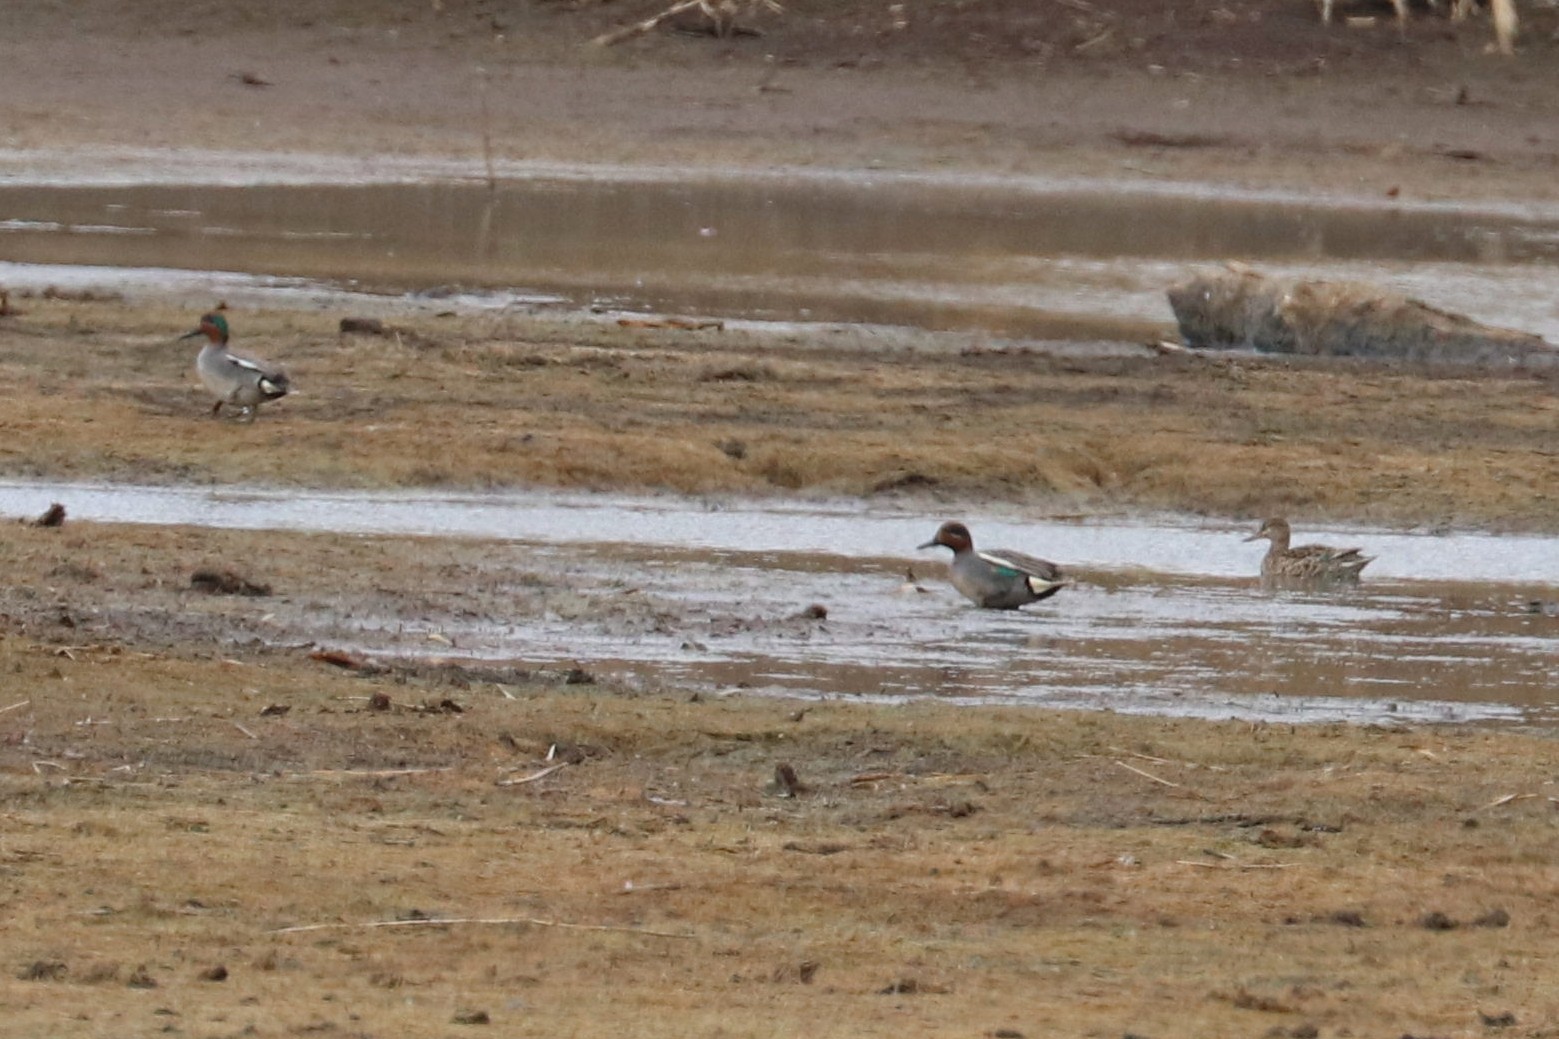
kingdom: Animalia
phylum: Chordata
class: Aves
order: Anseriformes
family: Anatidae
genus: Anas
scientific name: Anas crecca
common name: Eurasian teal
